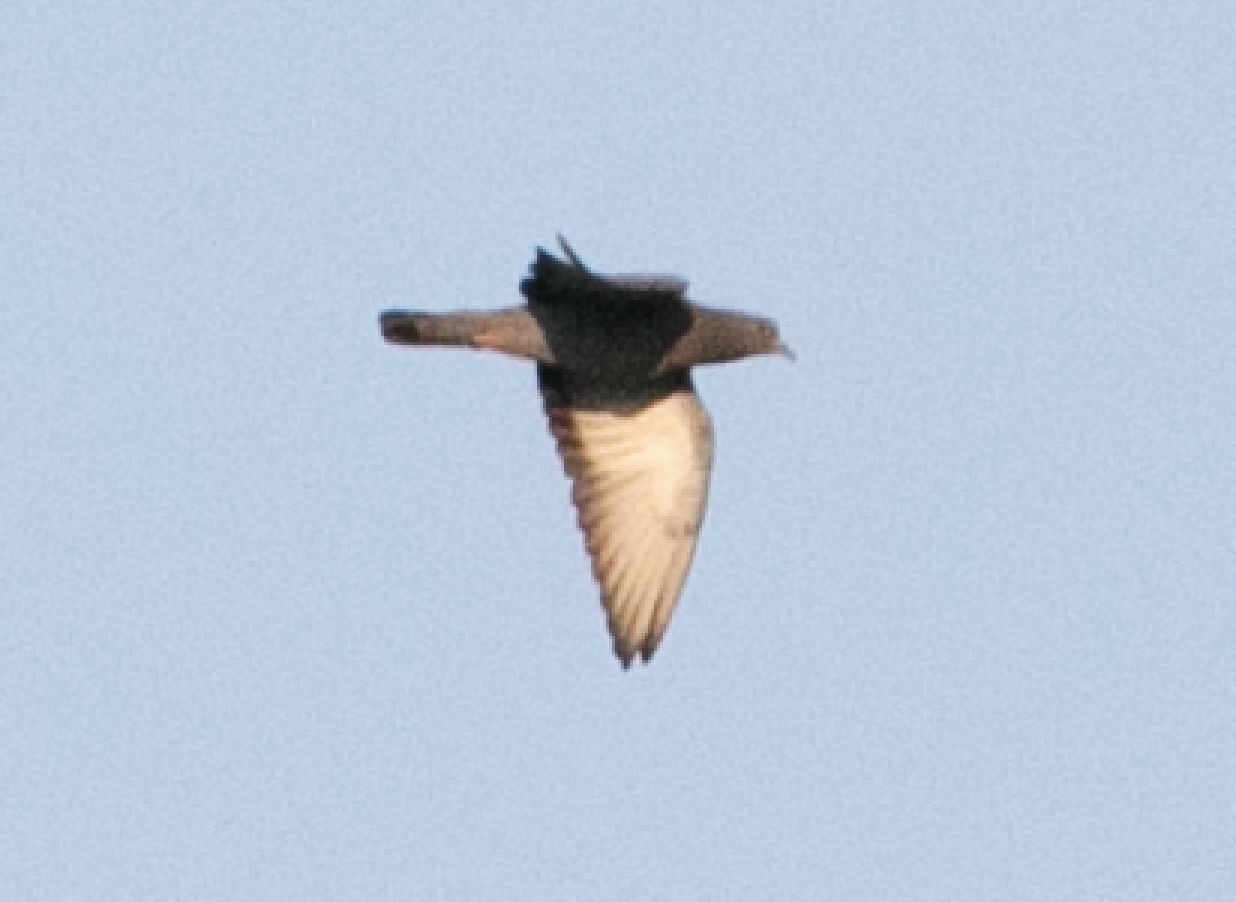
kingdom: Animalia
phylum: Chordata
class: Aves
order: Columbiformes
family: Columbidae
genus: Columba
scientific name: Columba livia
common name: Rock pigeon
